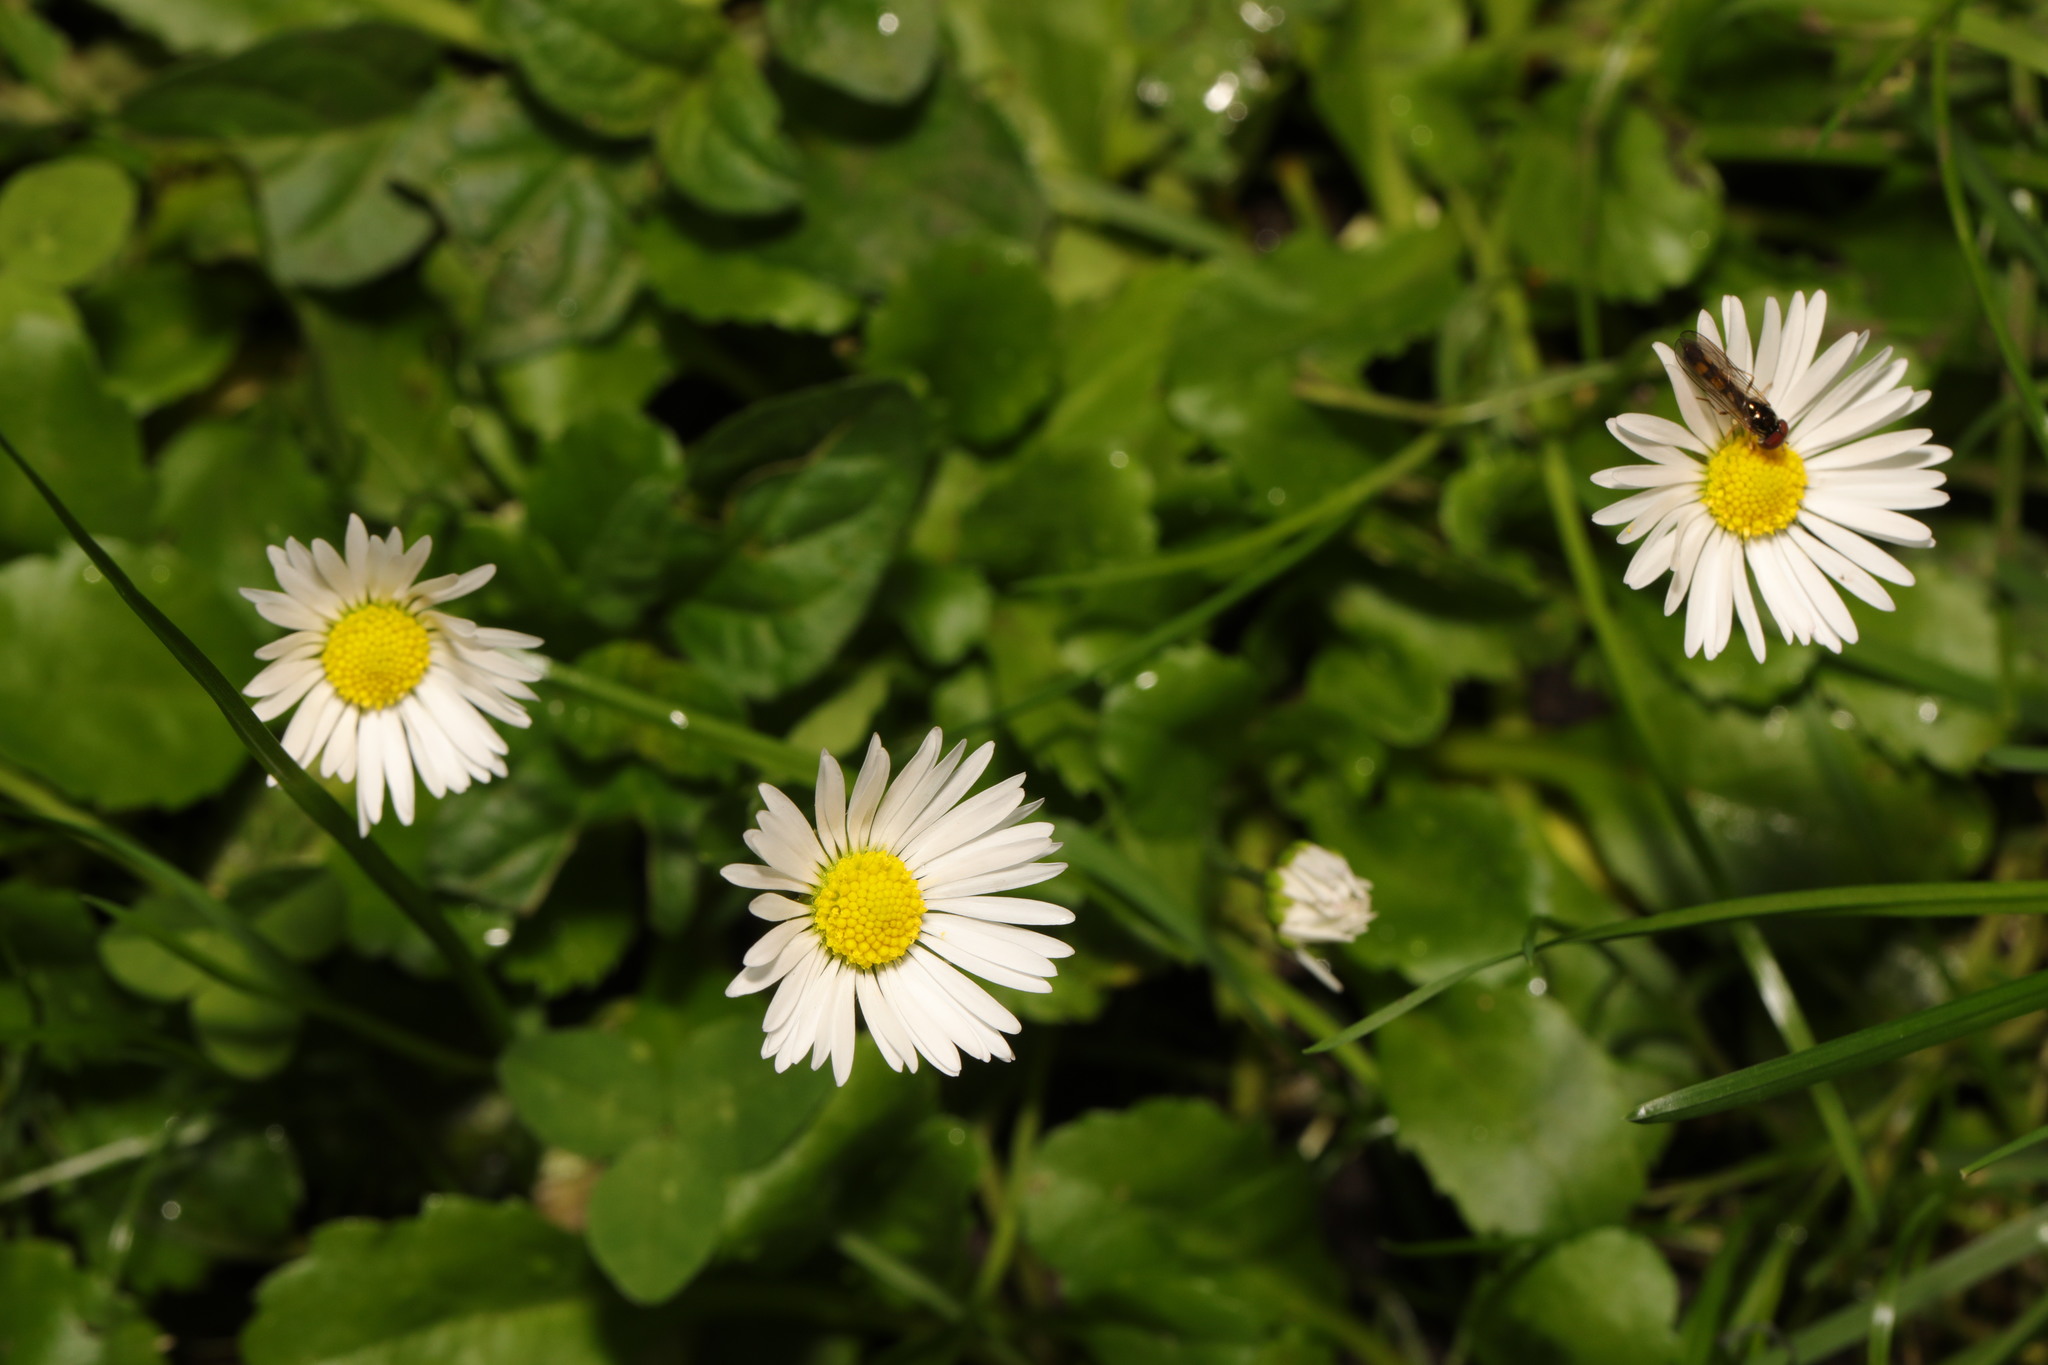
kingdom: Plantae
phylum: Tracheophyta
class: Magnoliopsida
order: Asterales
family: Asteraceae
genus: Bellis
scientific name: Bellis perennis
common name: Lawndaisy
